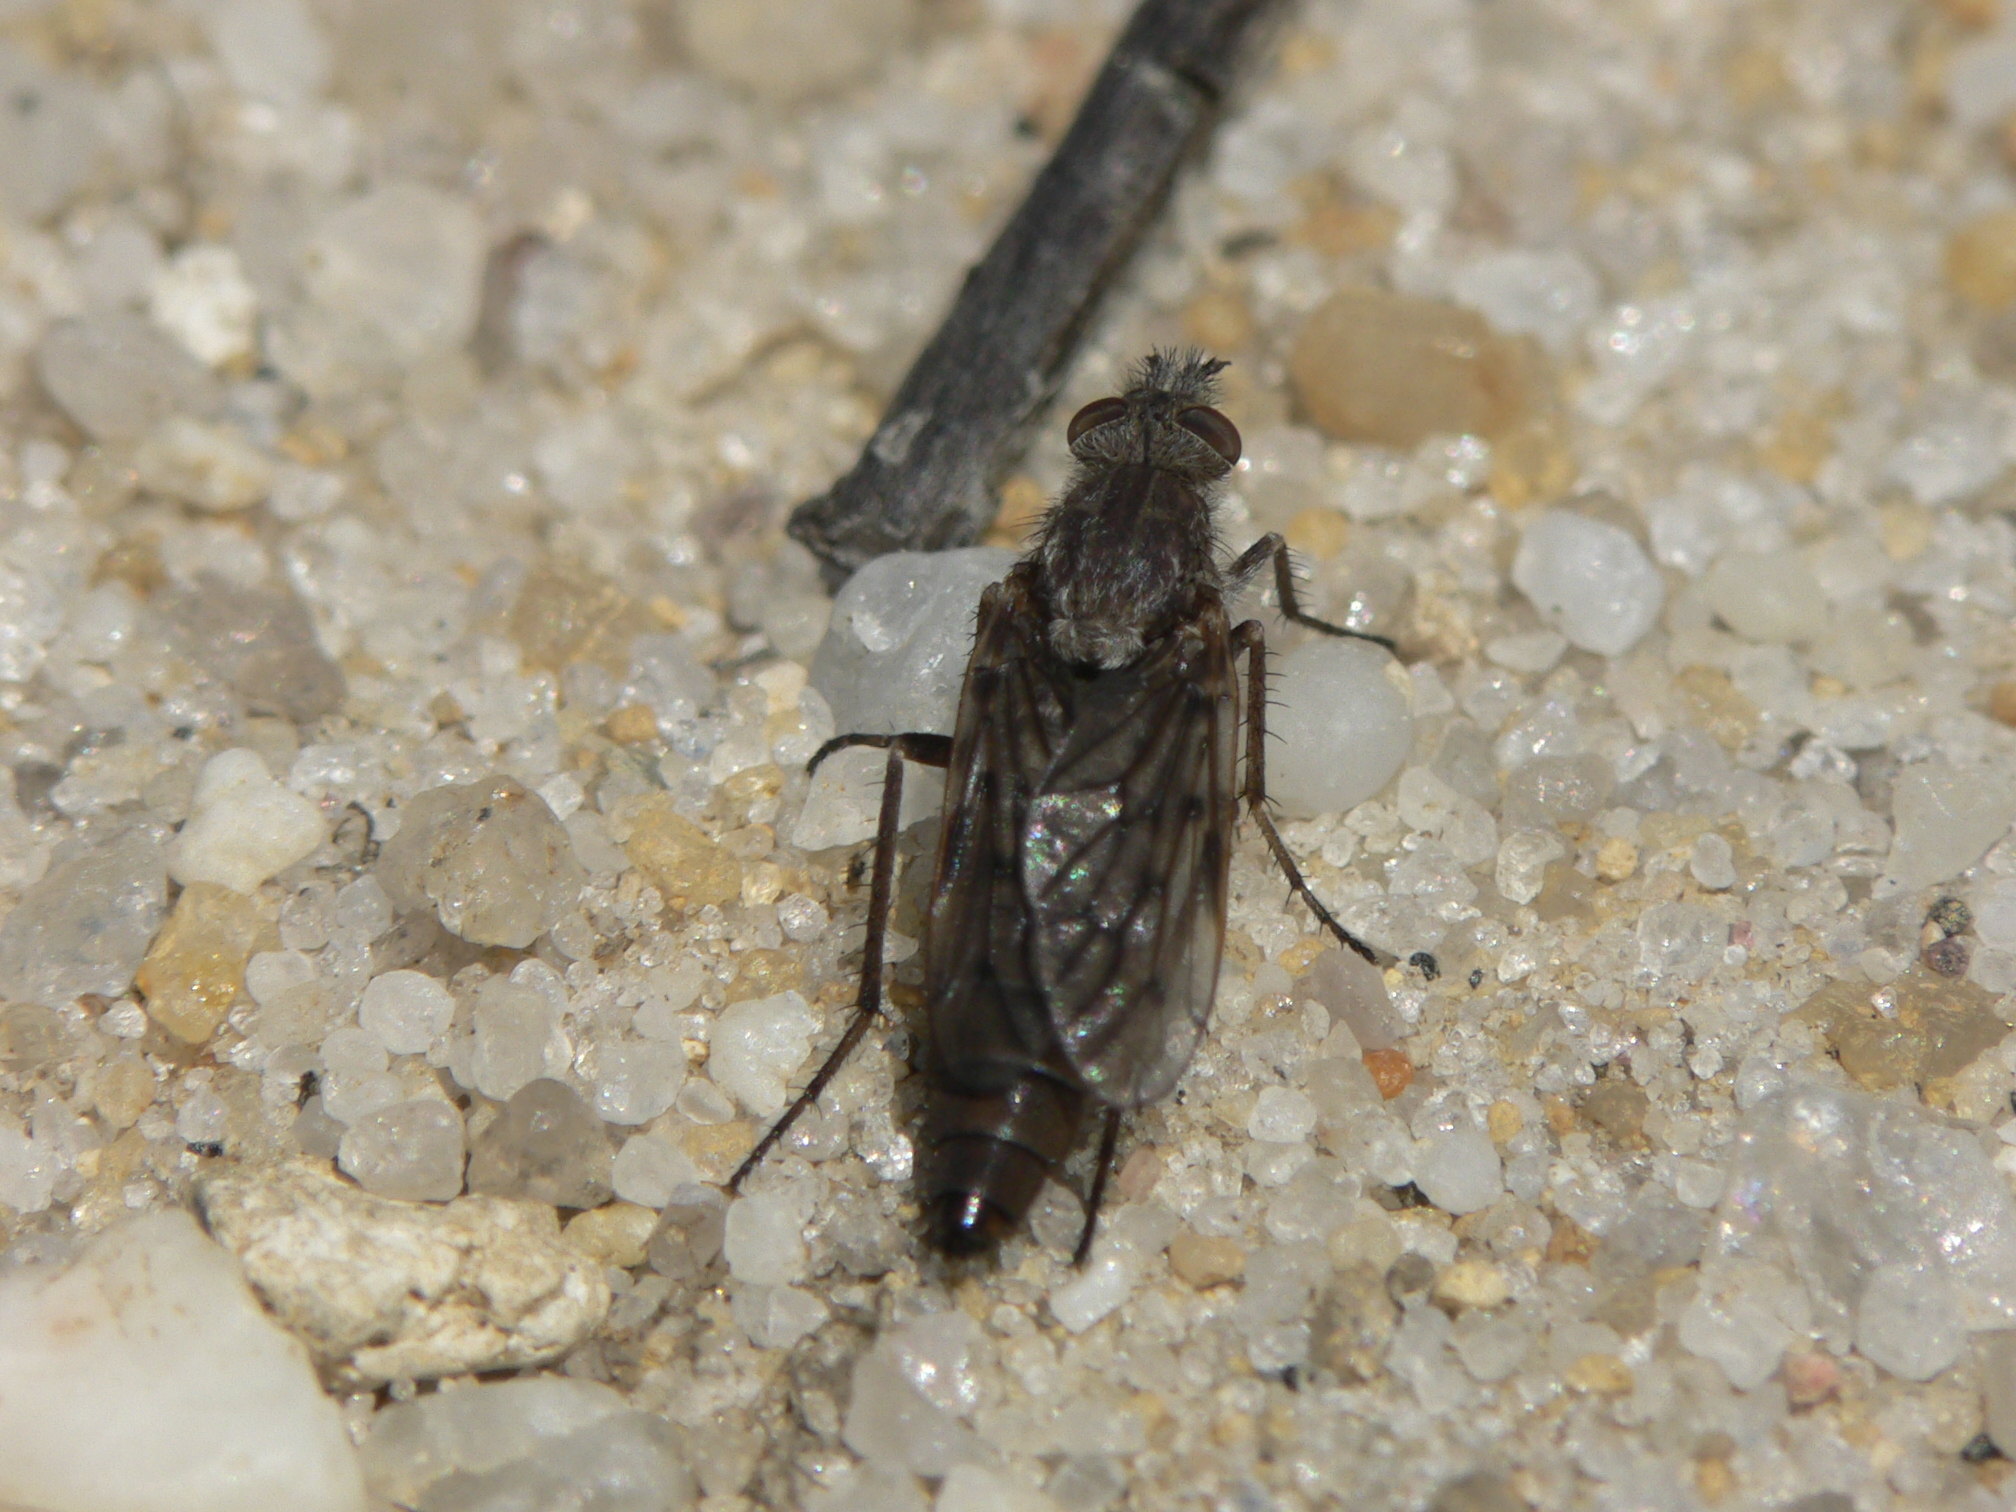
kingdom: Animalia
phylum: Arthropoda
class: Insecta
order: Diptera
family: Therevidae
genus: Tabuda
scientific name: Tabuda varia
